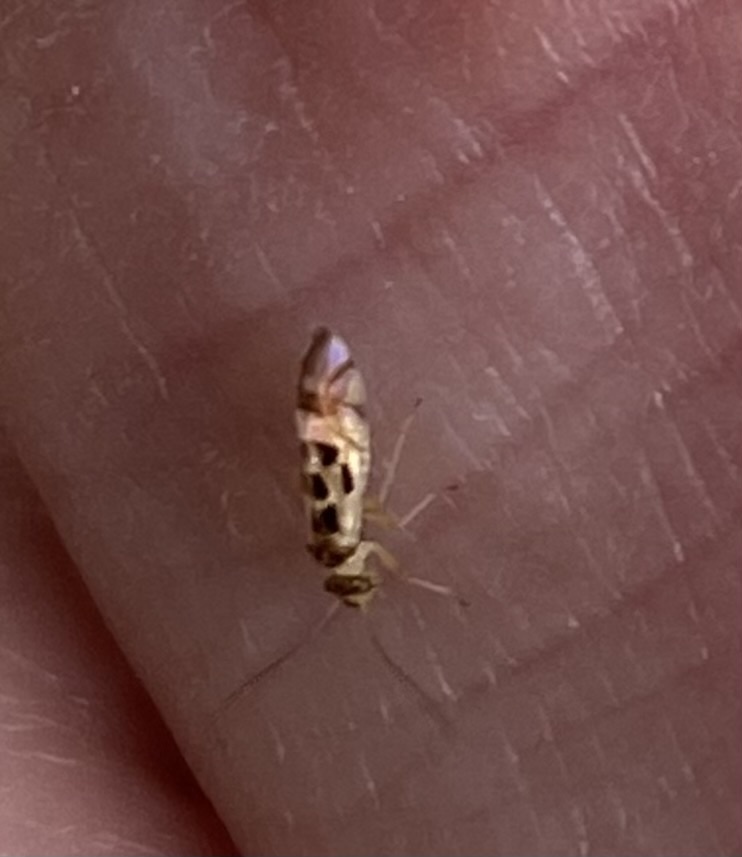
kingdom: Animalia
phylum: Arthropoda
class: Insecta
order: Psocodea
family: Stenopsocidae
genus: Graphopsocus
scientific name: Graphopsocus cruciatus
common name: Lizard bark louse
